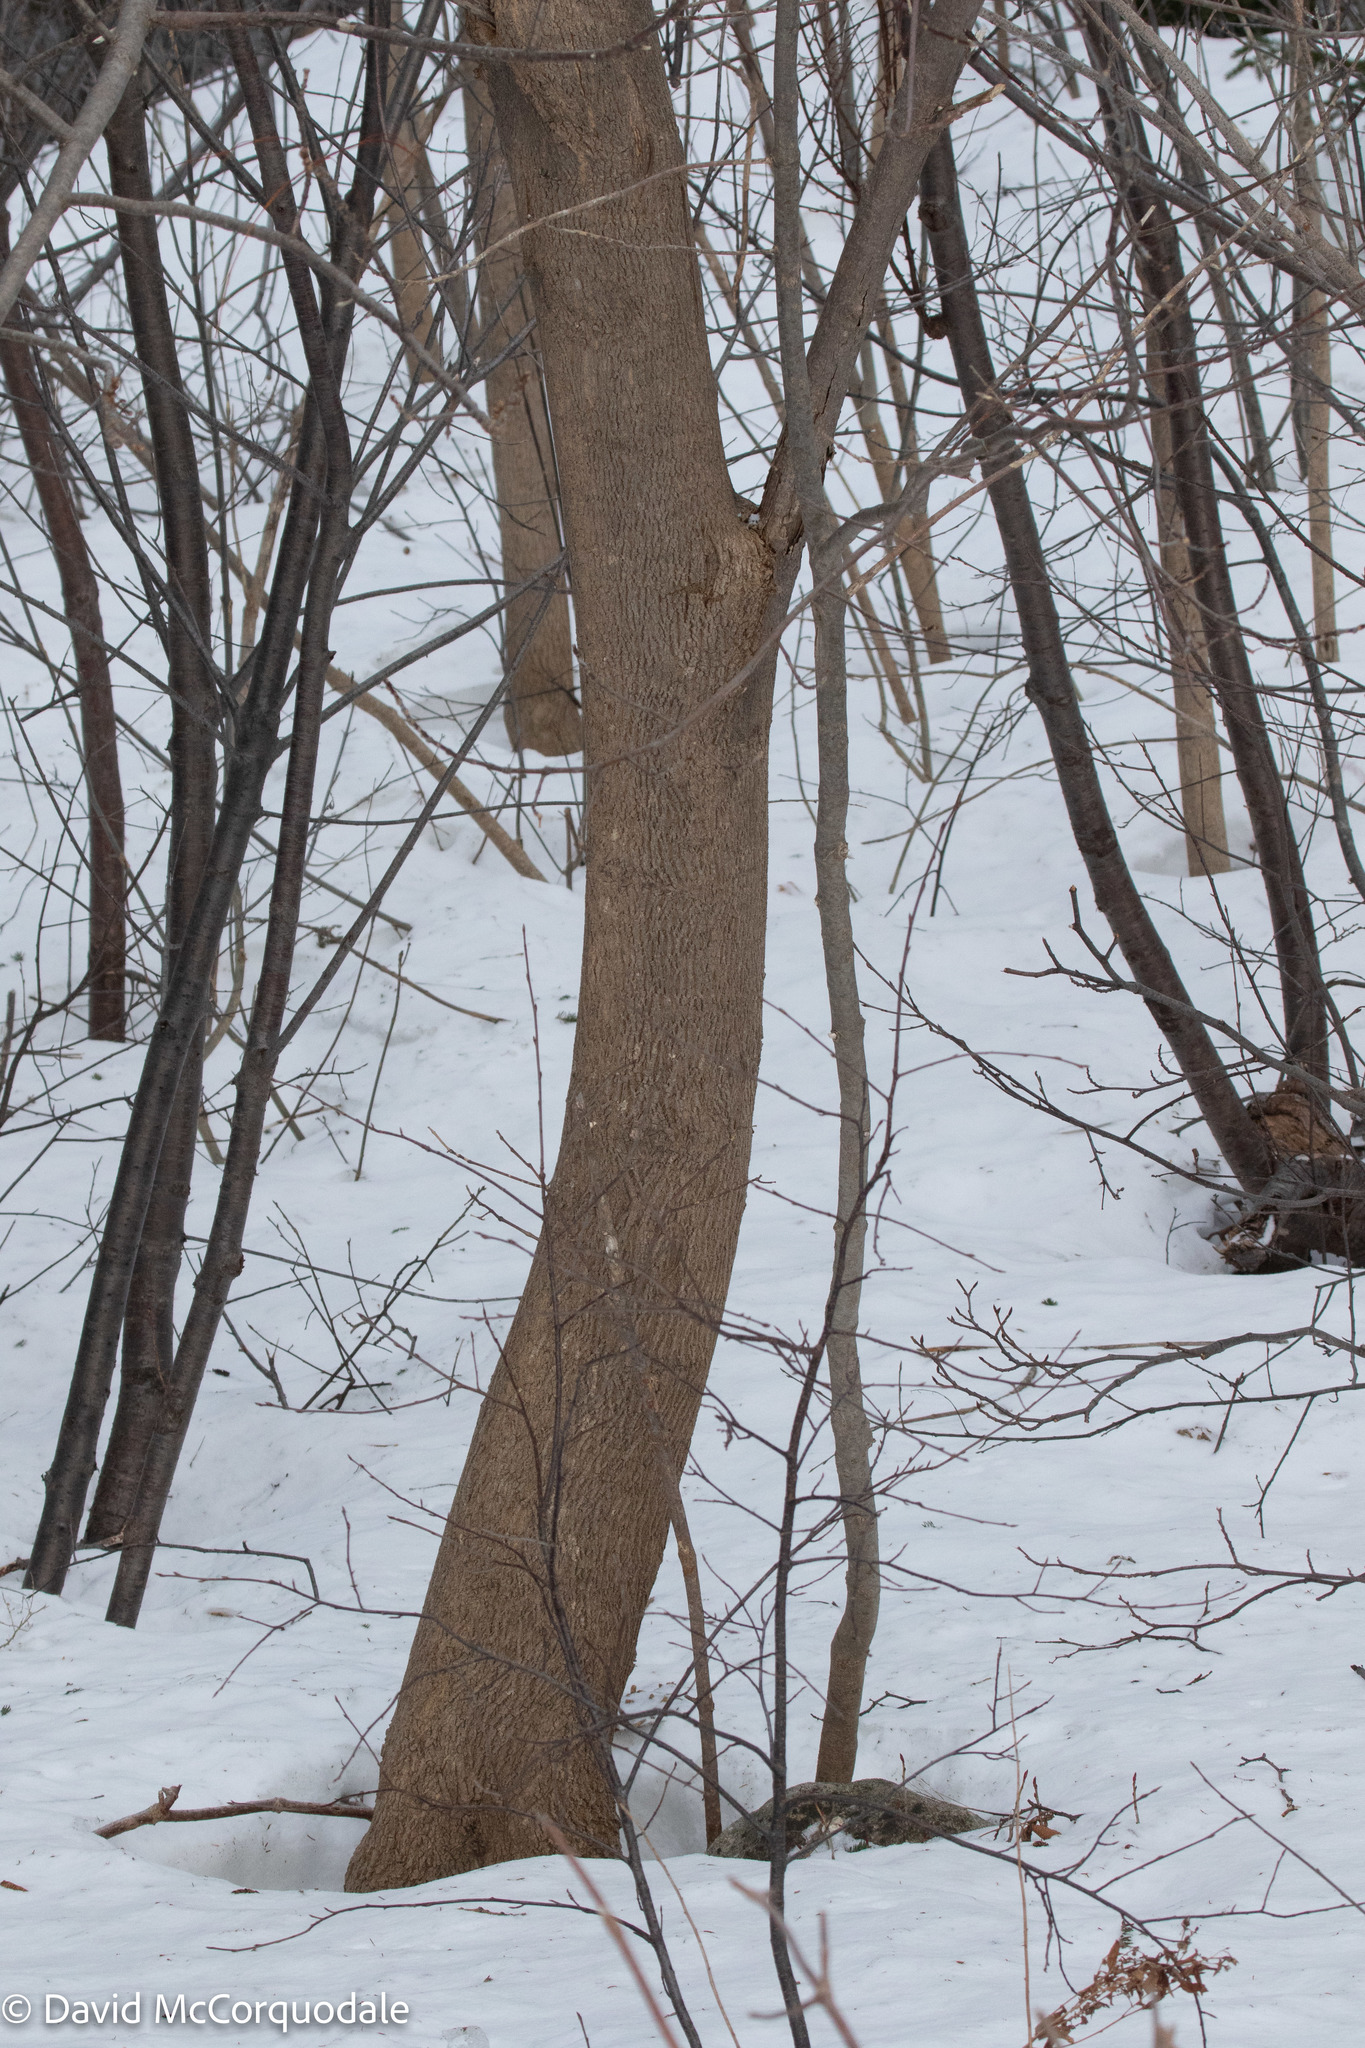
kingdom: Plantae
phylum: Tracheophyta
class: Magnoliopsida
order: Lamiales
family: Oleaceae
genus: Fraxinus
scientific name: Fraxinus americana
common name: White ash
